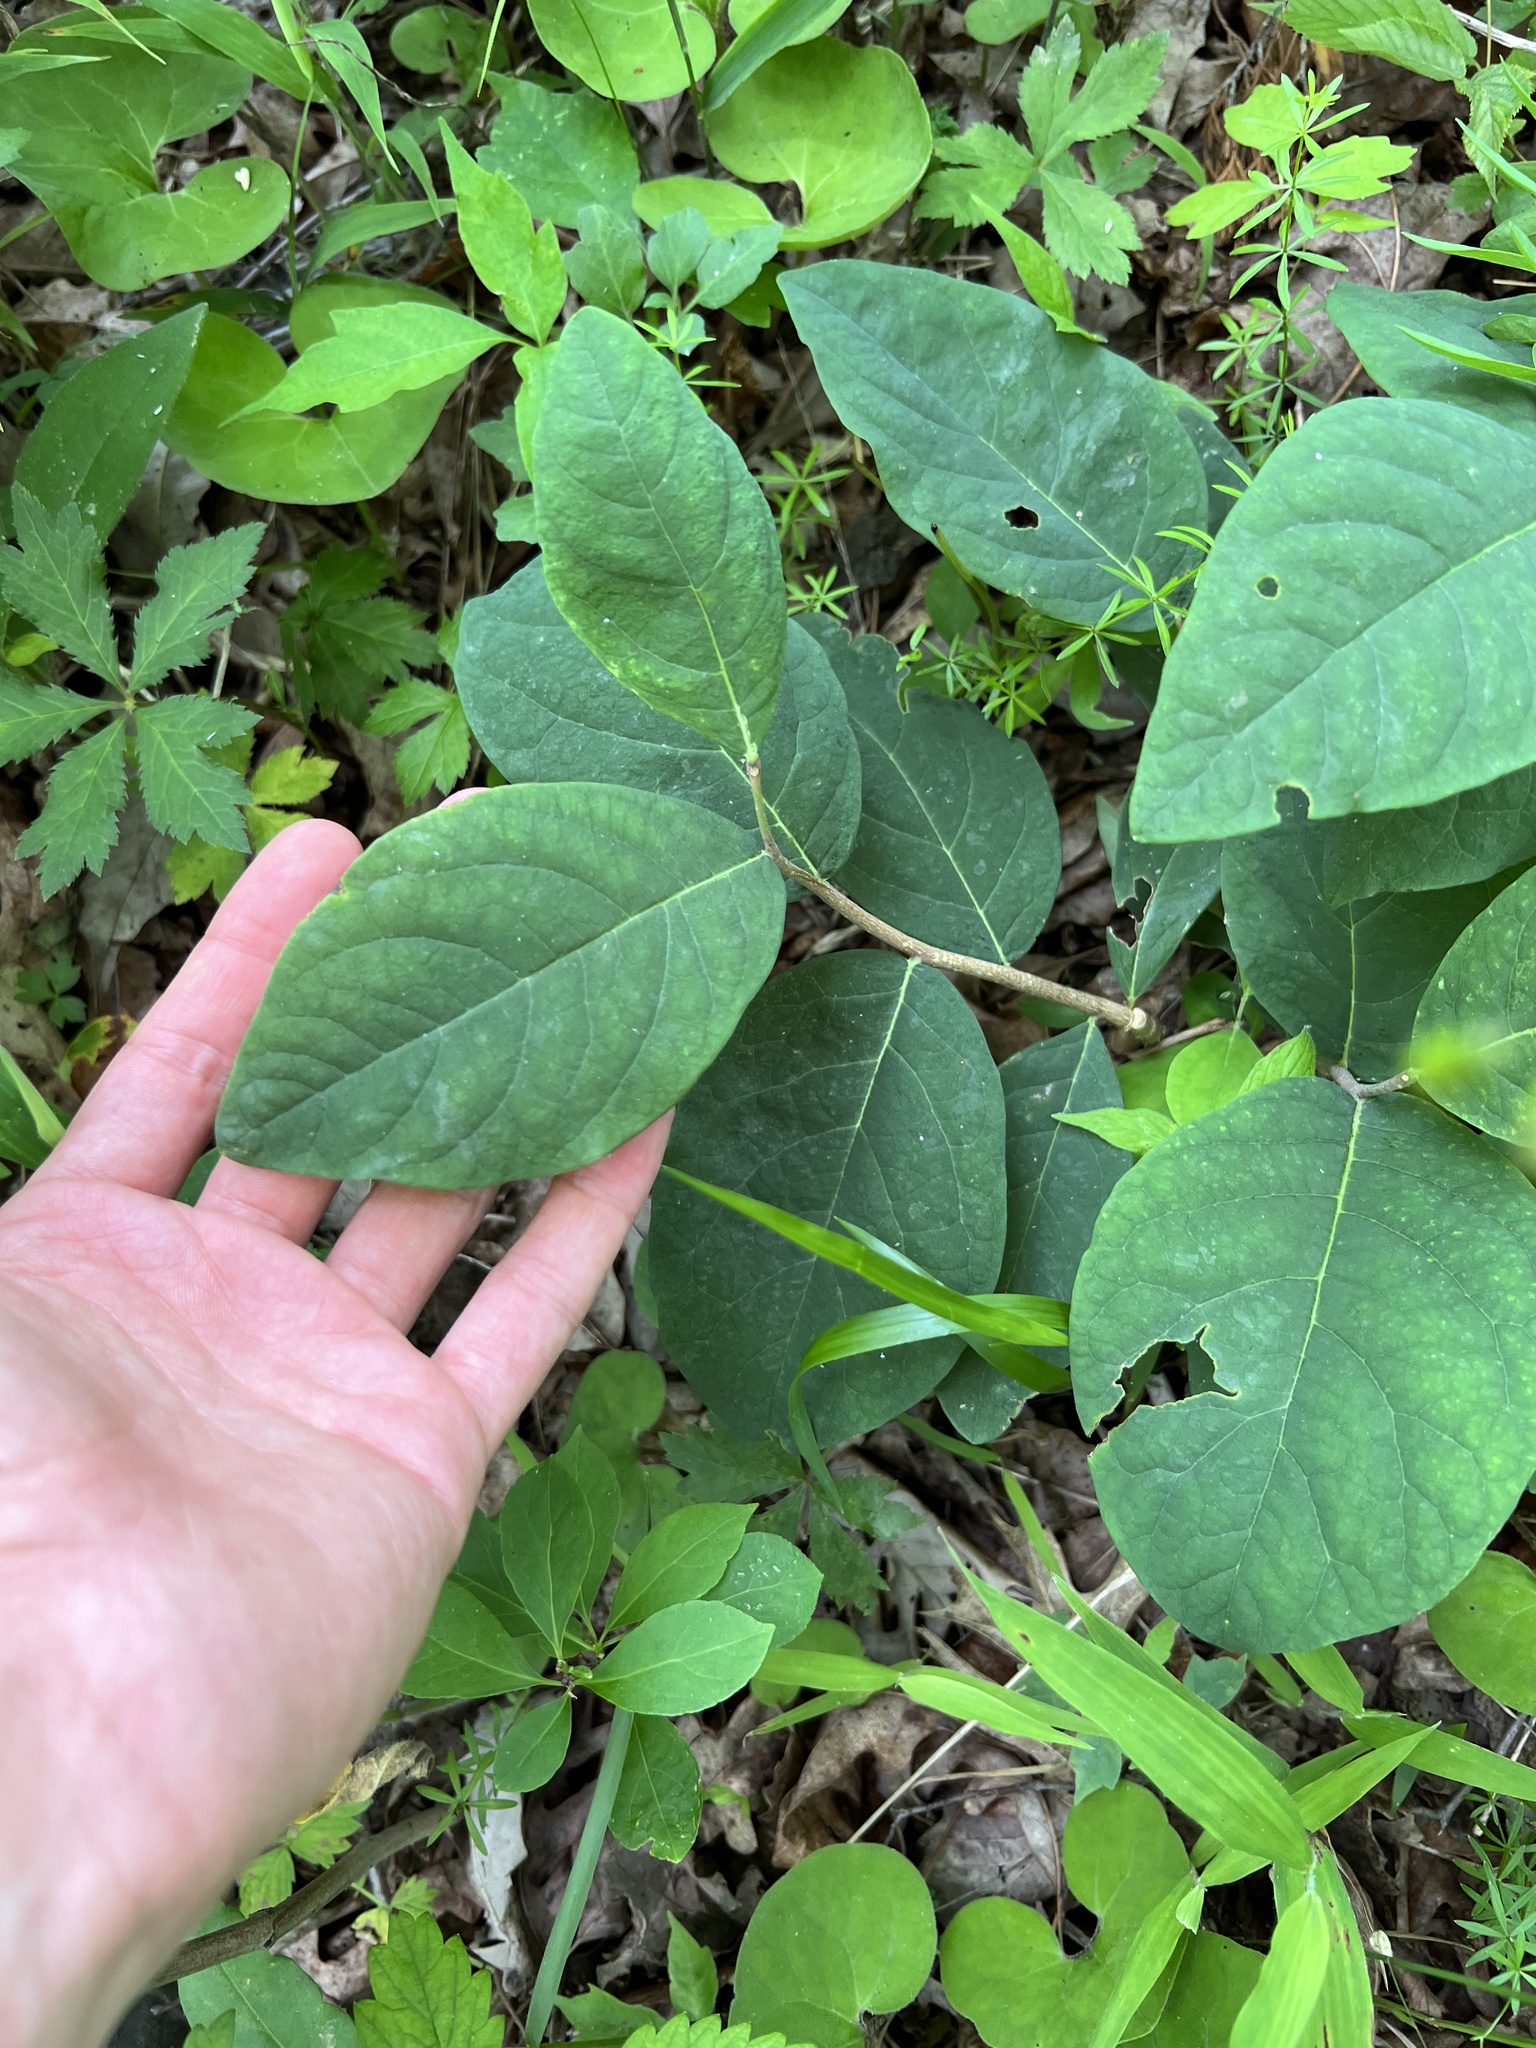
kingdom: Plantae
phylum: Tracheophyta
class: Magnoliopsida
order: Malvales
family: Thymelaeaceae
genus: Dirca
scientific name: Dirca palustris
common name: Leatherwood
